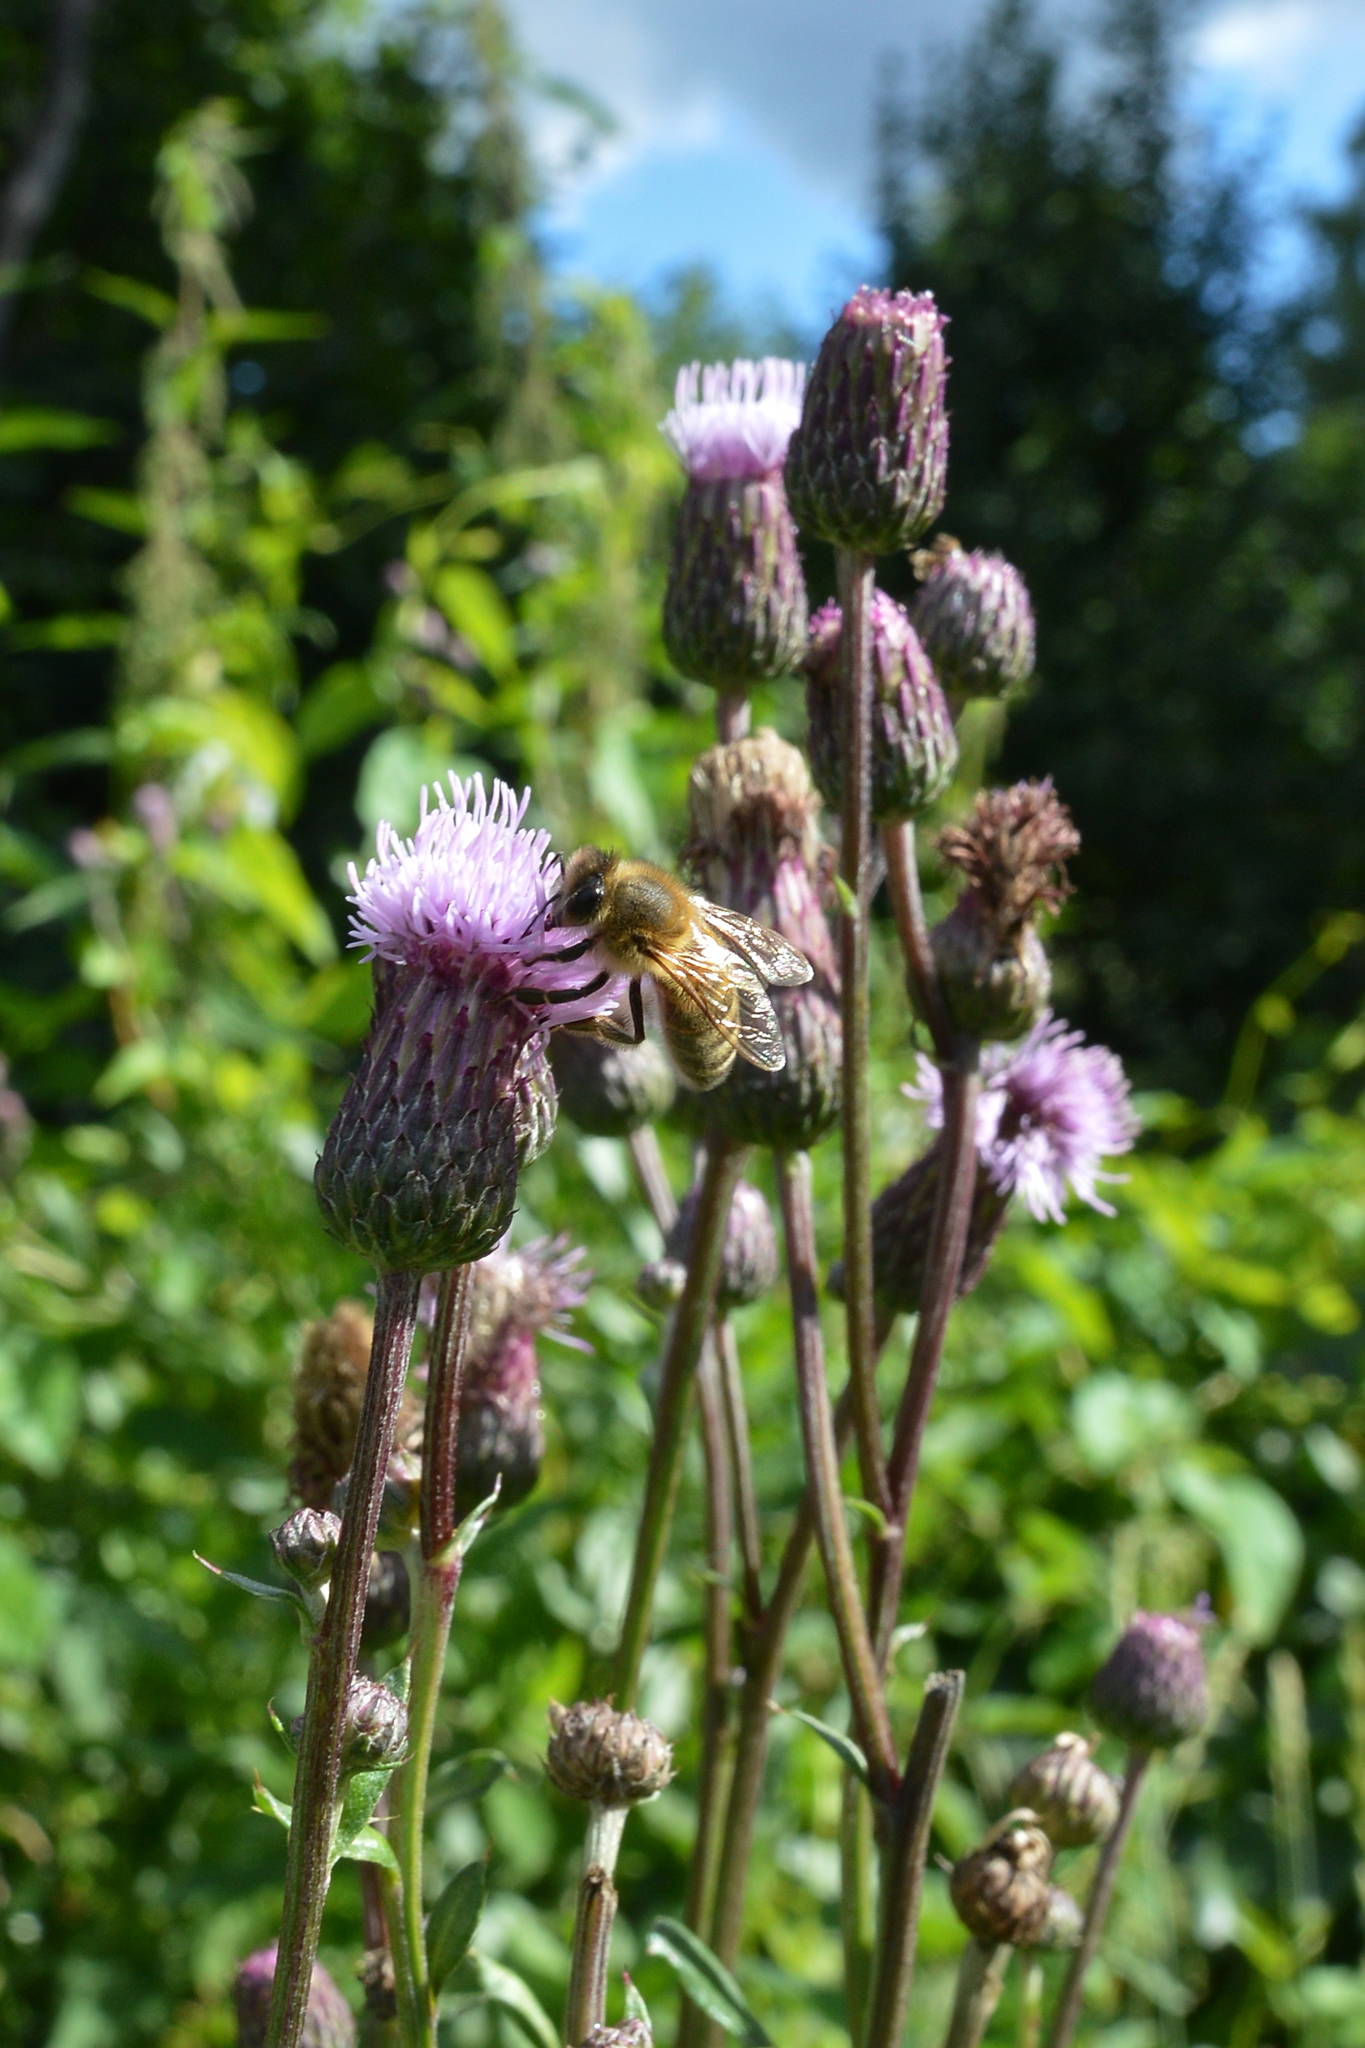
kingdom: Animalia
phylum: Arthropoda
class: Insecta
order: Hymenoptera
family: Apidae
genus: Apis
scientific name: Apis mellifera
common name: Honey bee
